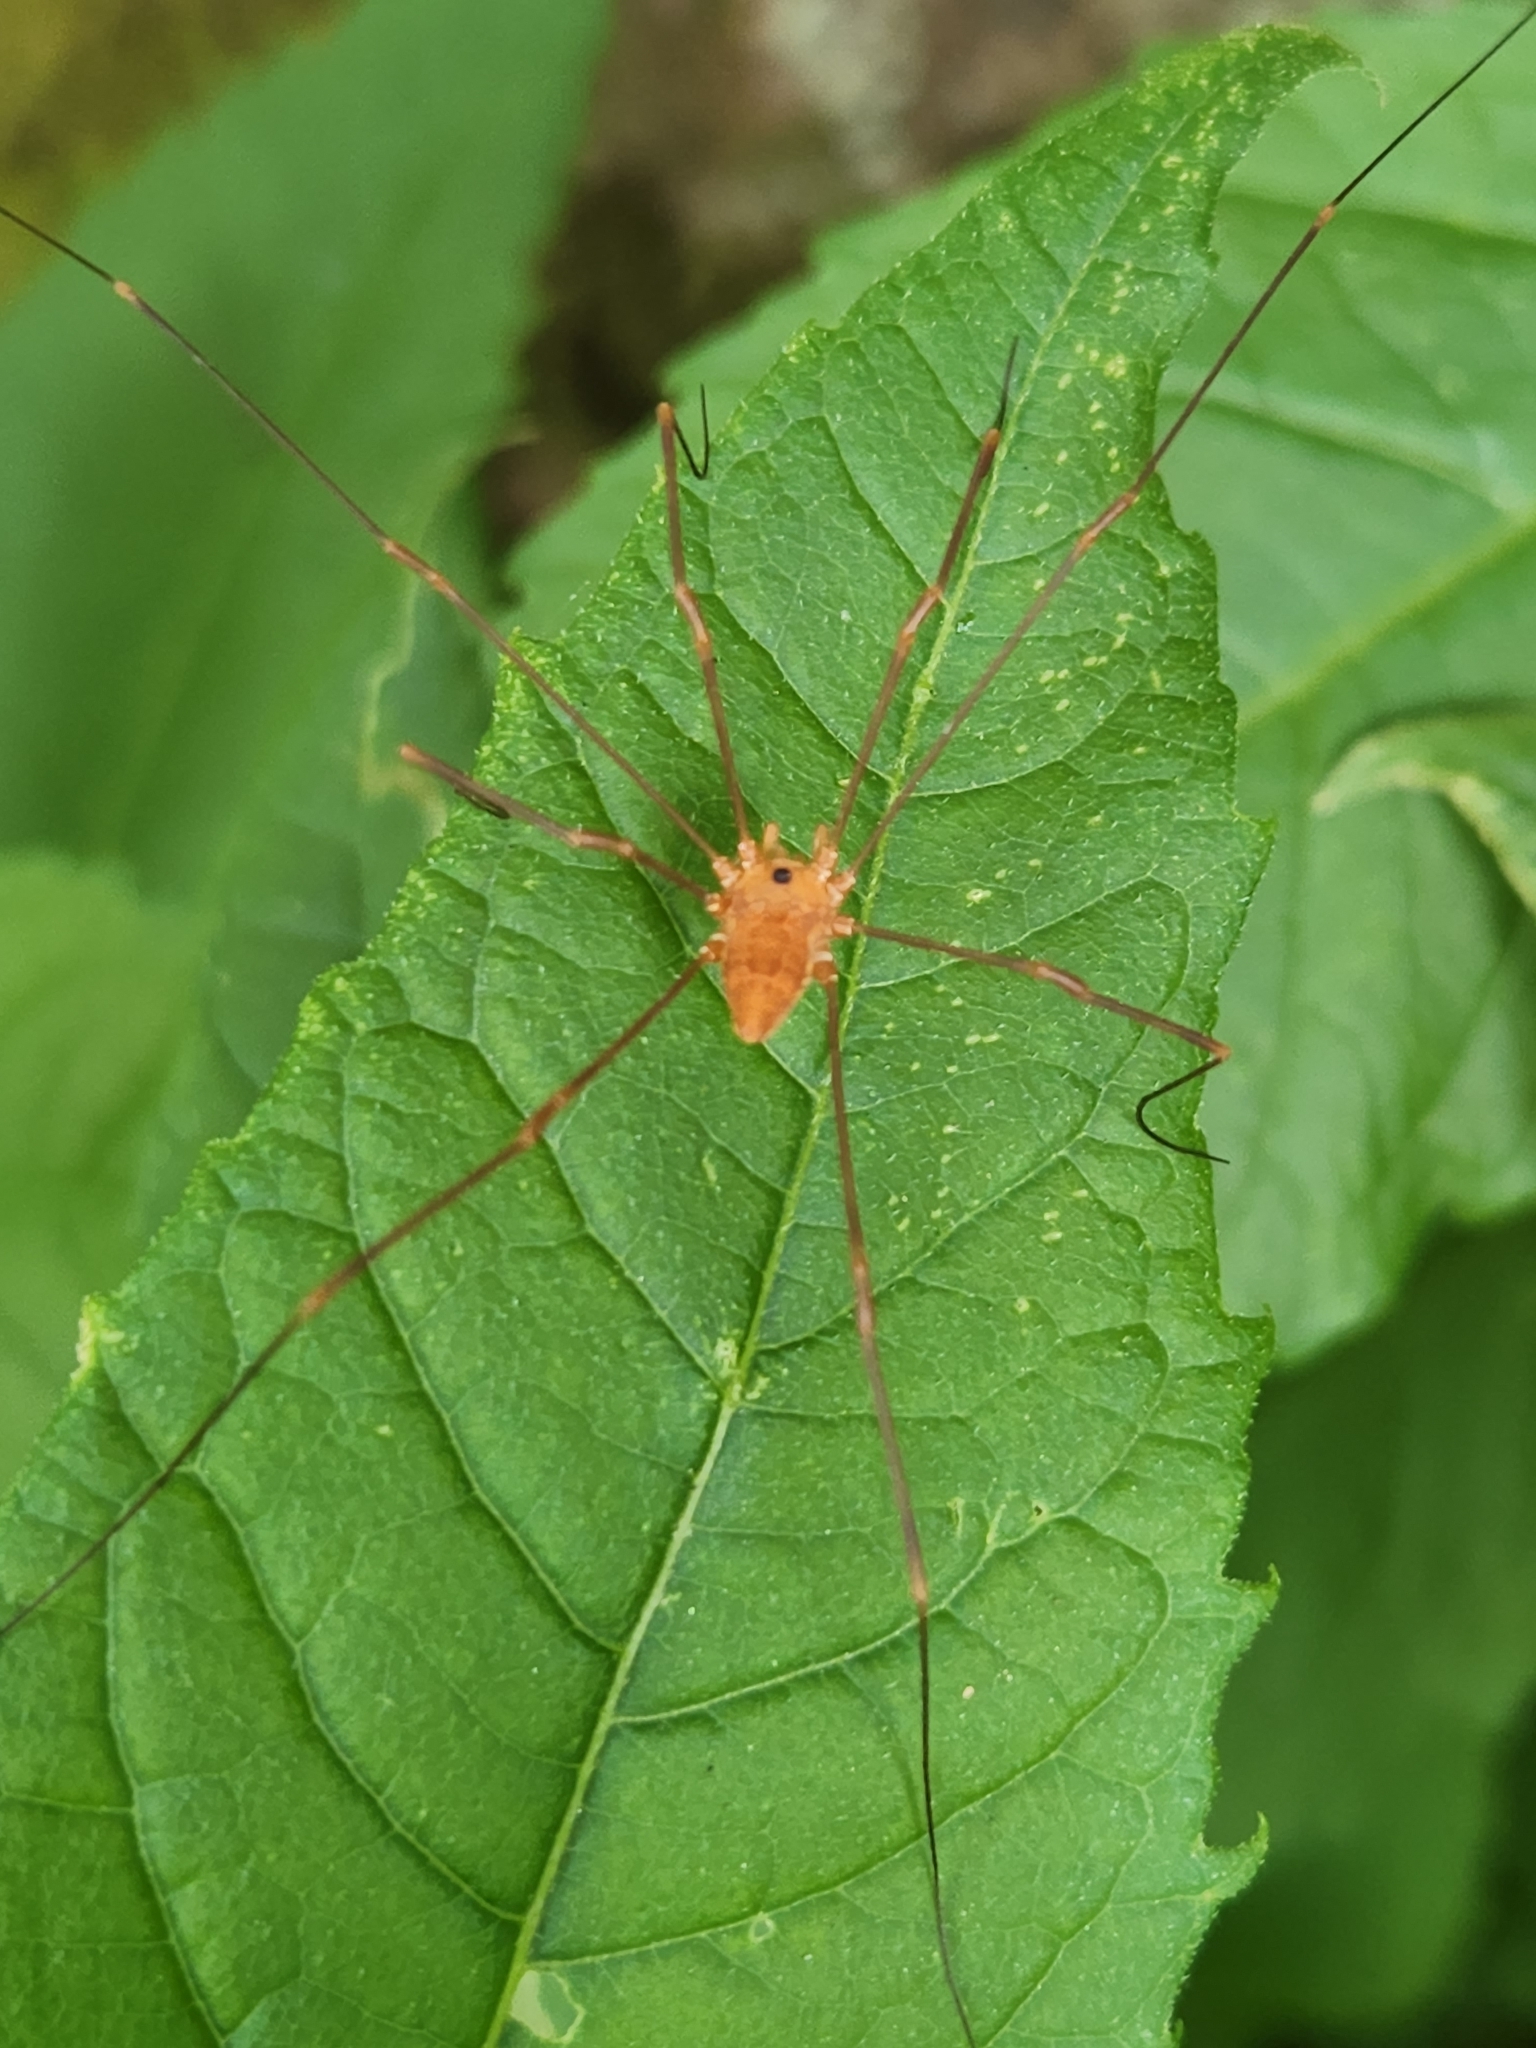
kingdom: Animalia
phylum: Arthropoda
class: Arachnida
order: Opiliones
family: Sclerosomatidae
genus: Leiobunum
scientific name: Leiobunum ventricosum
